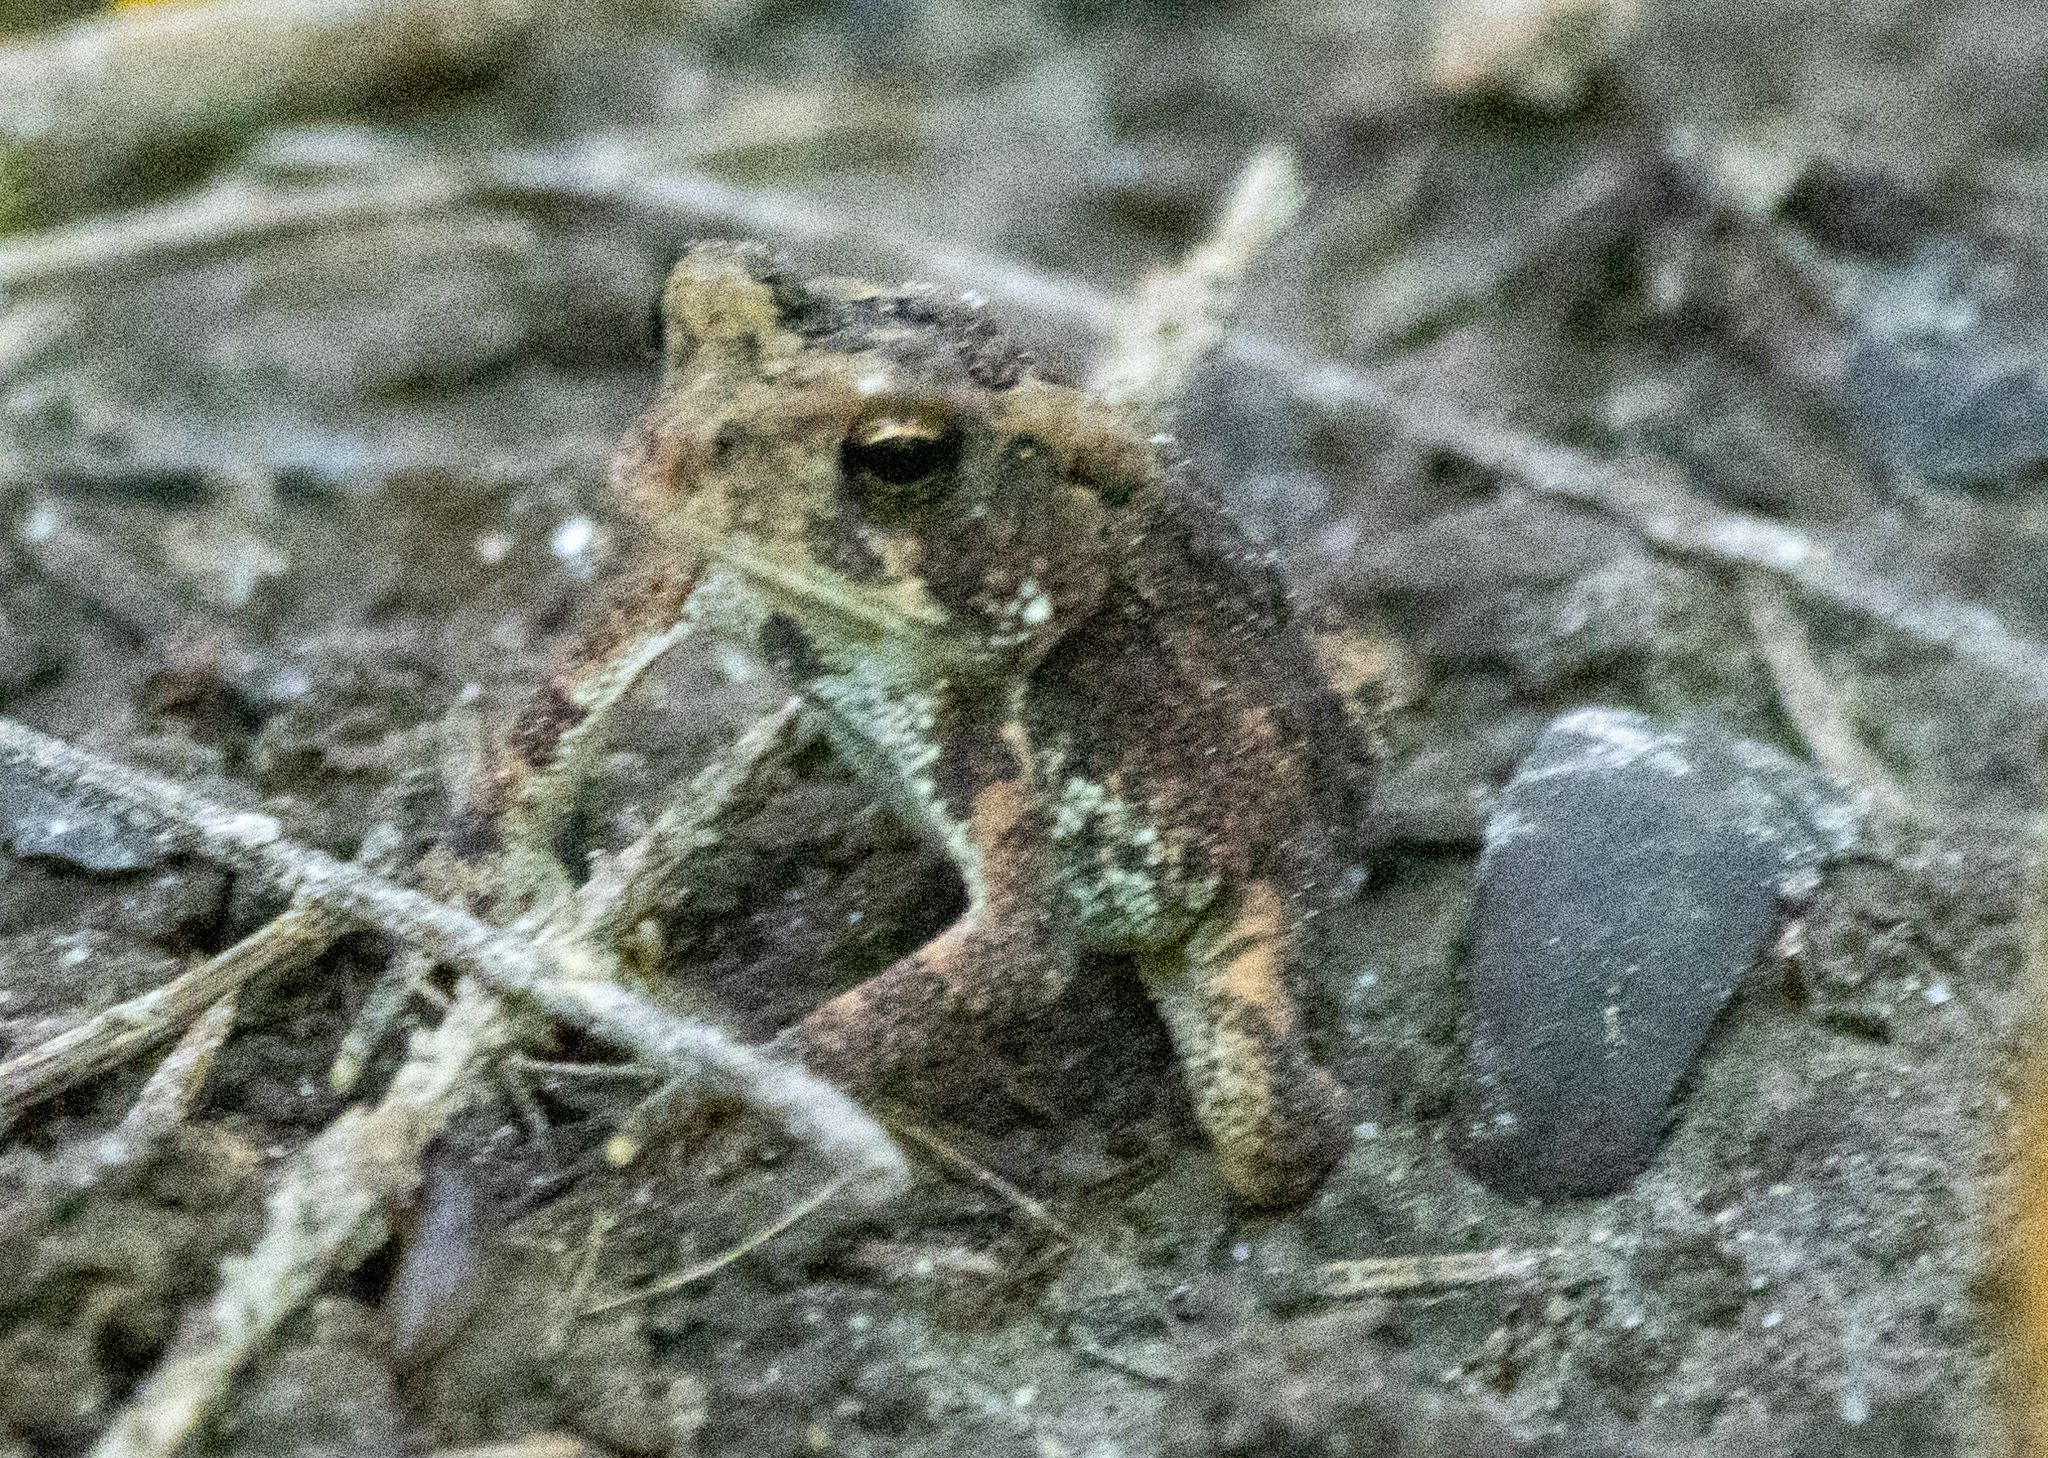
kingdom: Animalia
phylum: Chordata
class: Amphibia
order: Anura
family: Bufonidae
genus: Anaxyrus
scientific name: Anaxyrus americanus
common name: American toad
